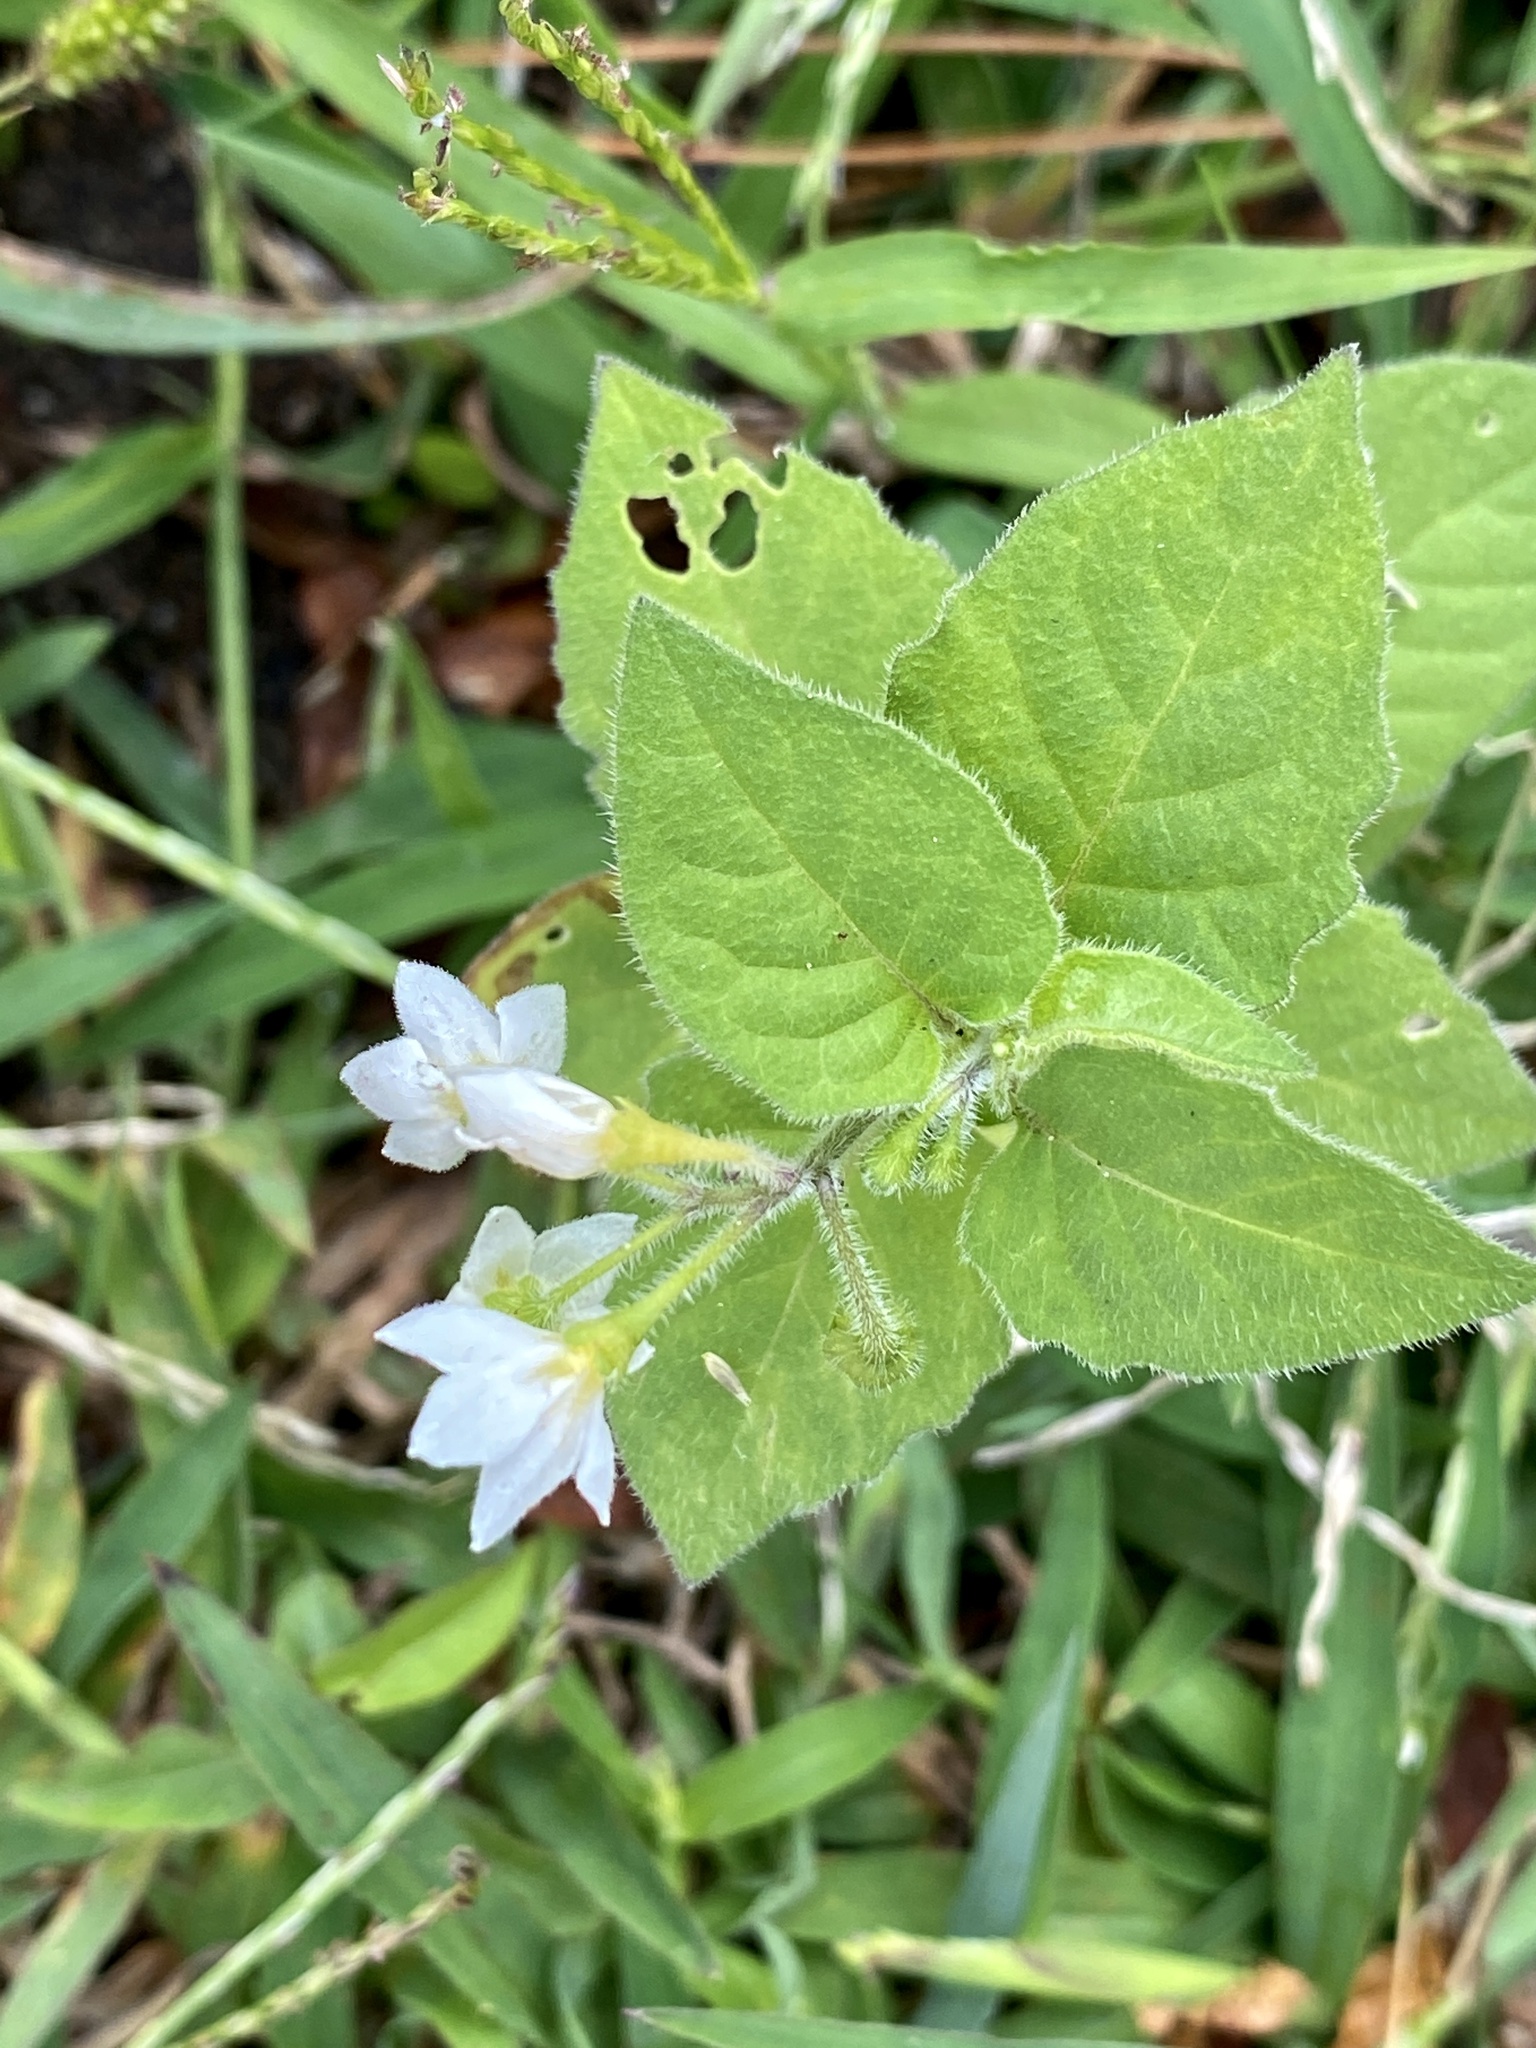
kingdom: Plantae
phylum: Tracheophyta
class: Magnoliopsida
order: Solanales
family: Solanaceae
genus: Solanum
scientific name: Solanum nigrum
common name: Black nightshade
